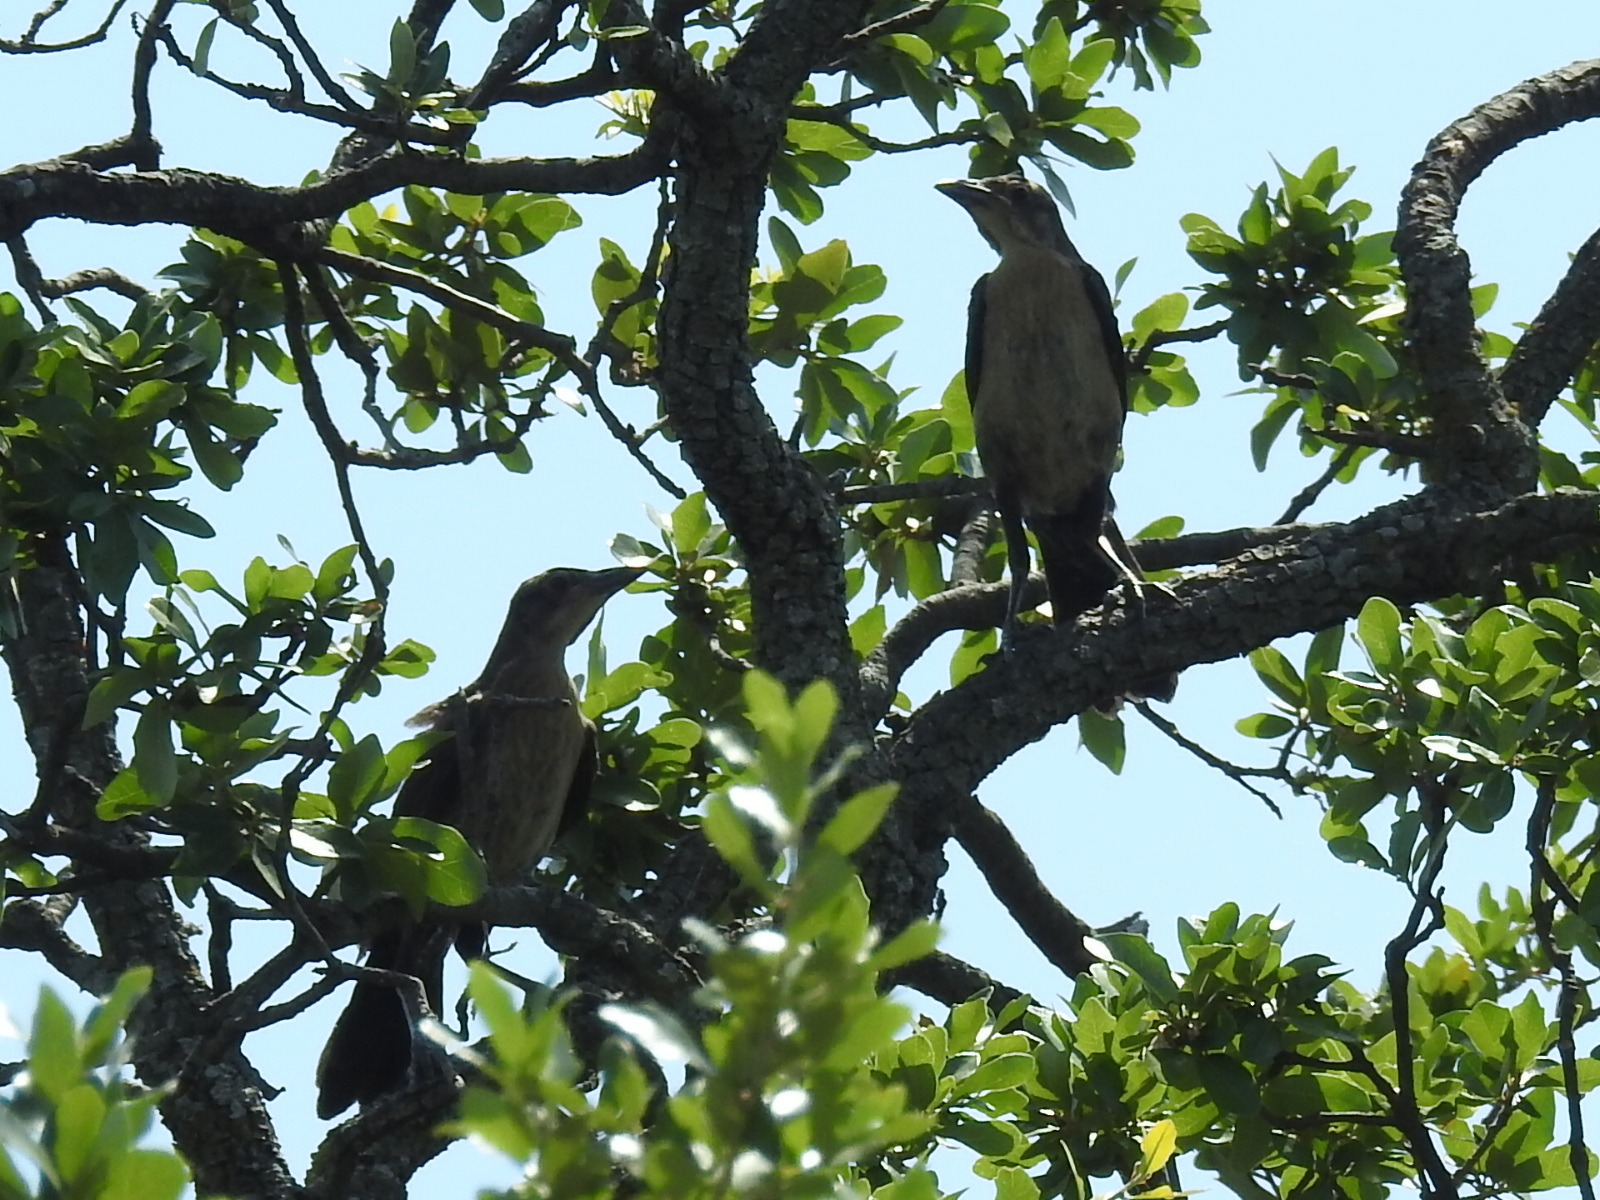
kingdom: Animalia
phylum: Chordata
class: Aves
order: Passeriformes
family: Icteridae
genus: Quiscalus
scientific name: Quiscalus mexicanus
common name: Great-tailed grackle
